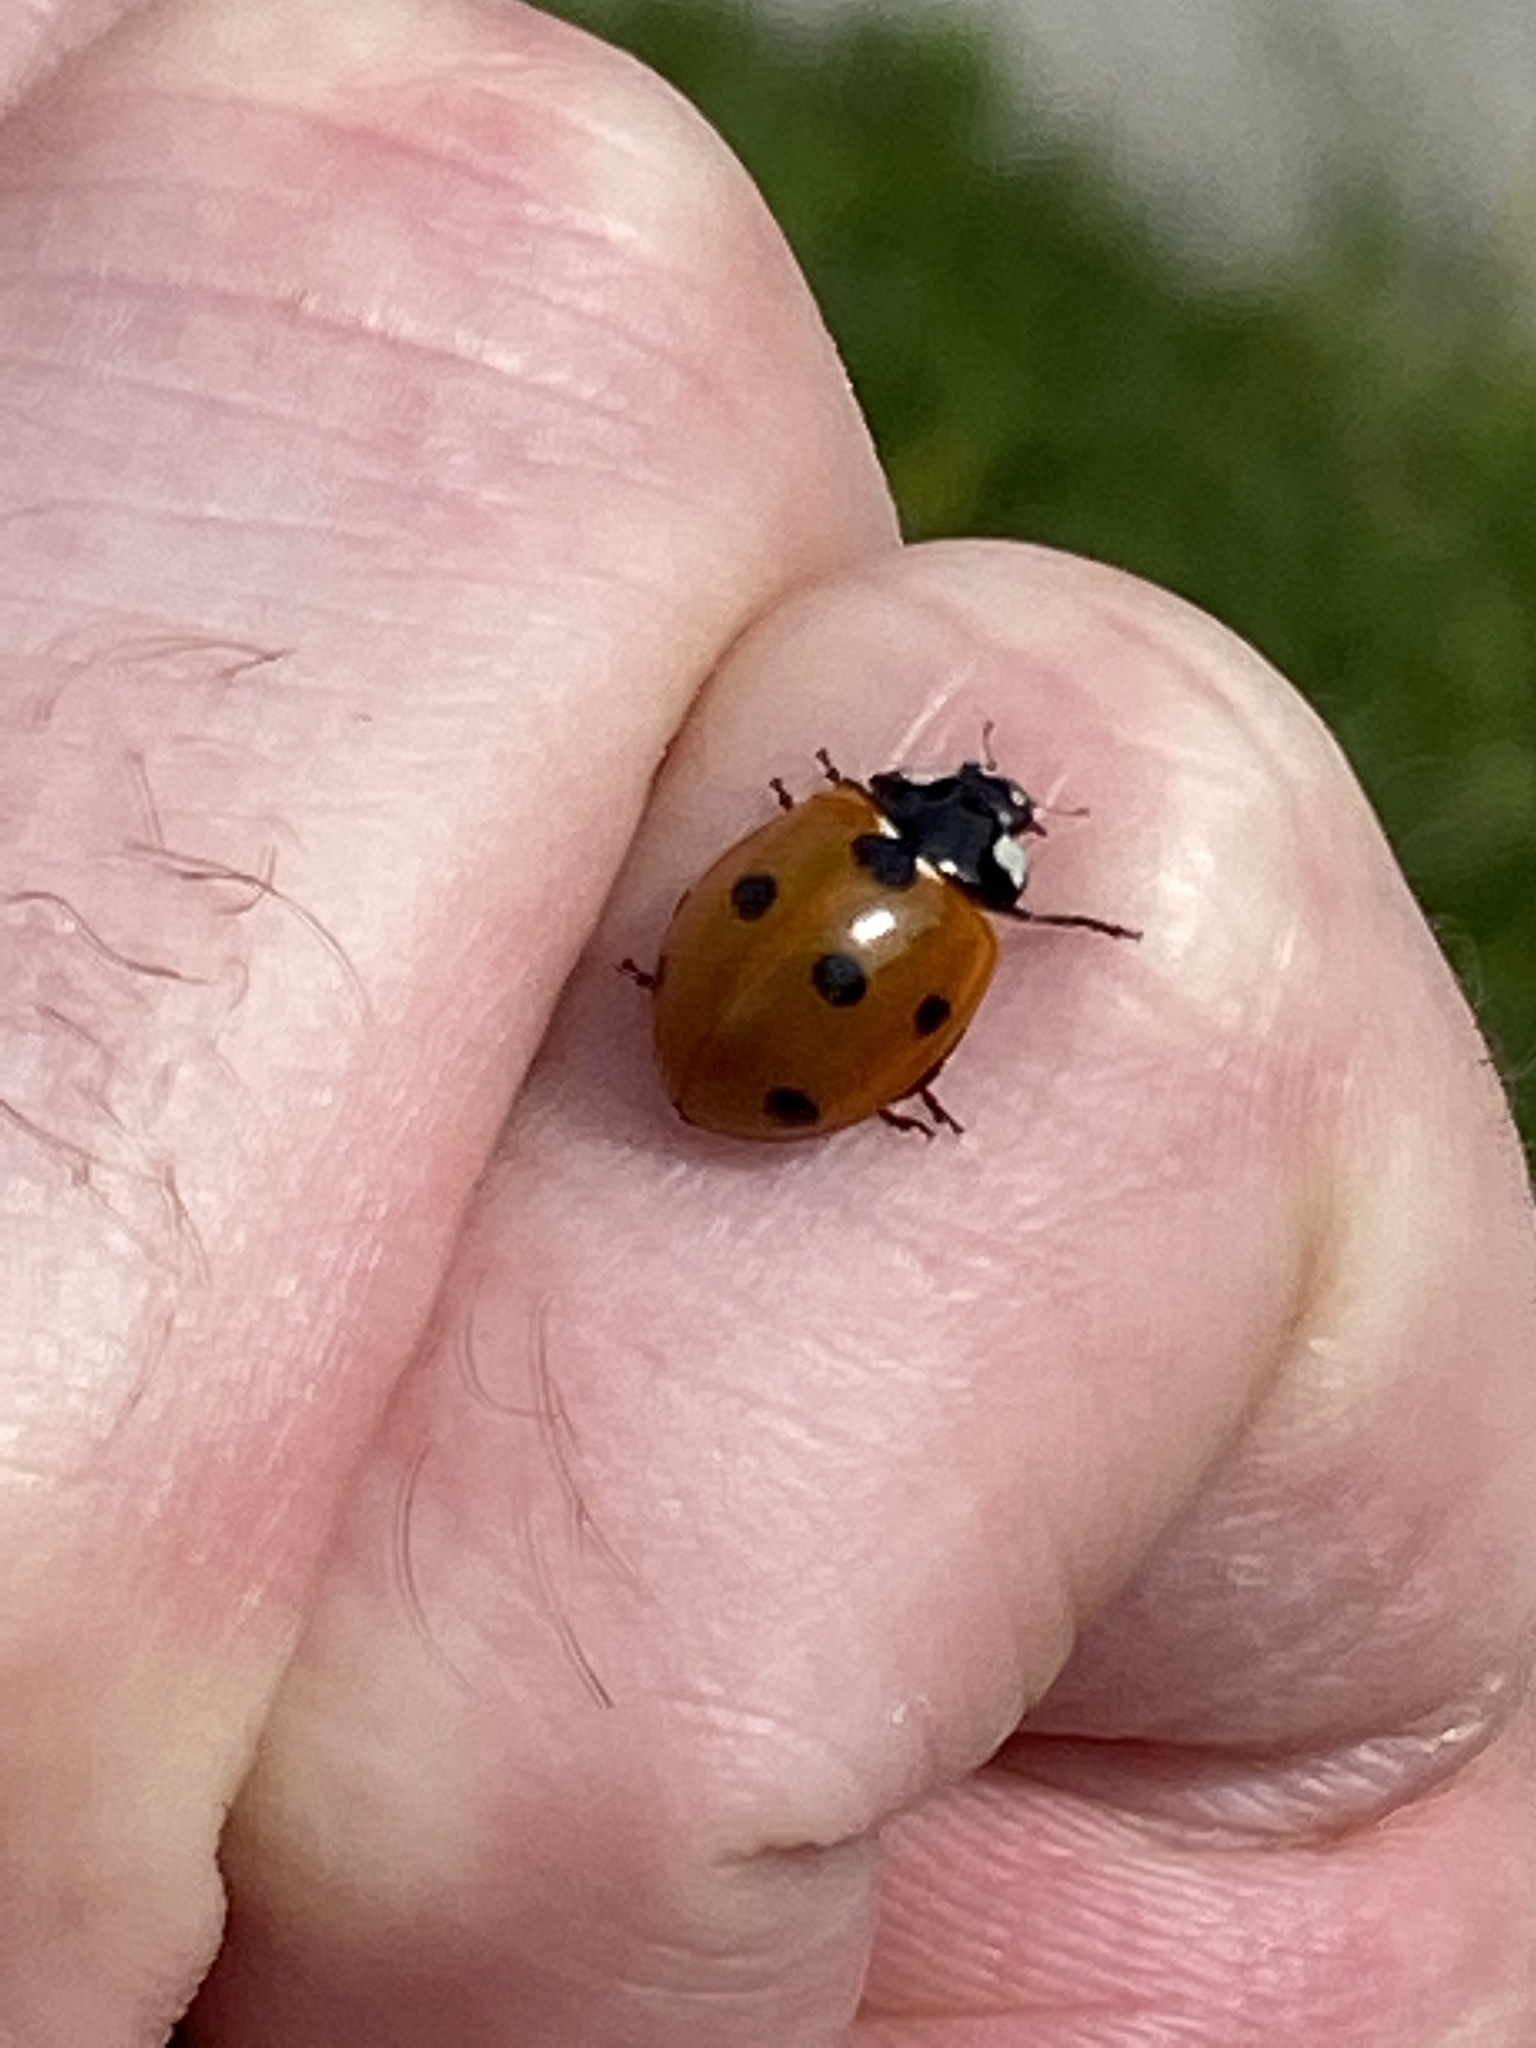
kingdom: Animalia
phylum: Arthropoda
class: Insecta
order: Coleoptera
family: Coccinellidae
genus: Coccinella
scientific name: Coccinella septempunctata
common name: Sevenspotted lady beetle
